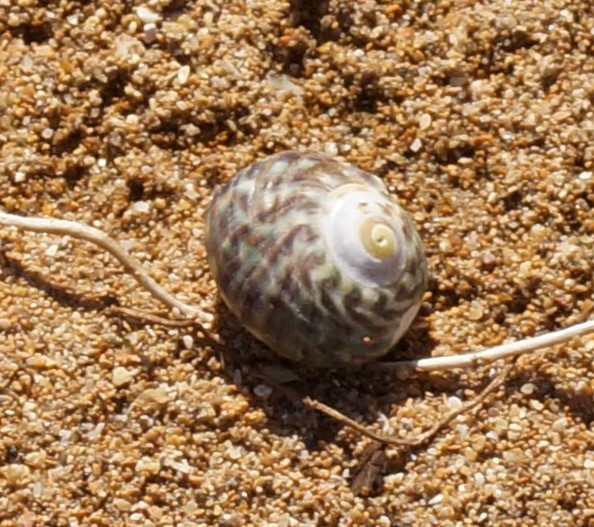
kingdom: Animalia
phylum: Mollusca
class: Gastropoda
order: Trochida
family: Turbinidae
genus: Lunella
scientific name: Lunella undulata
